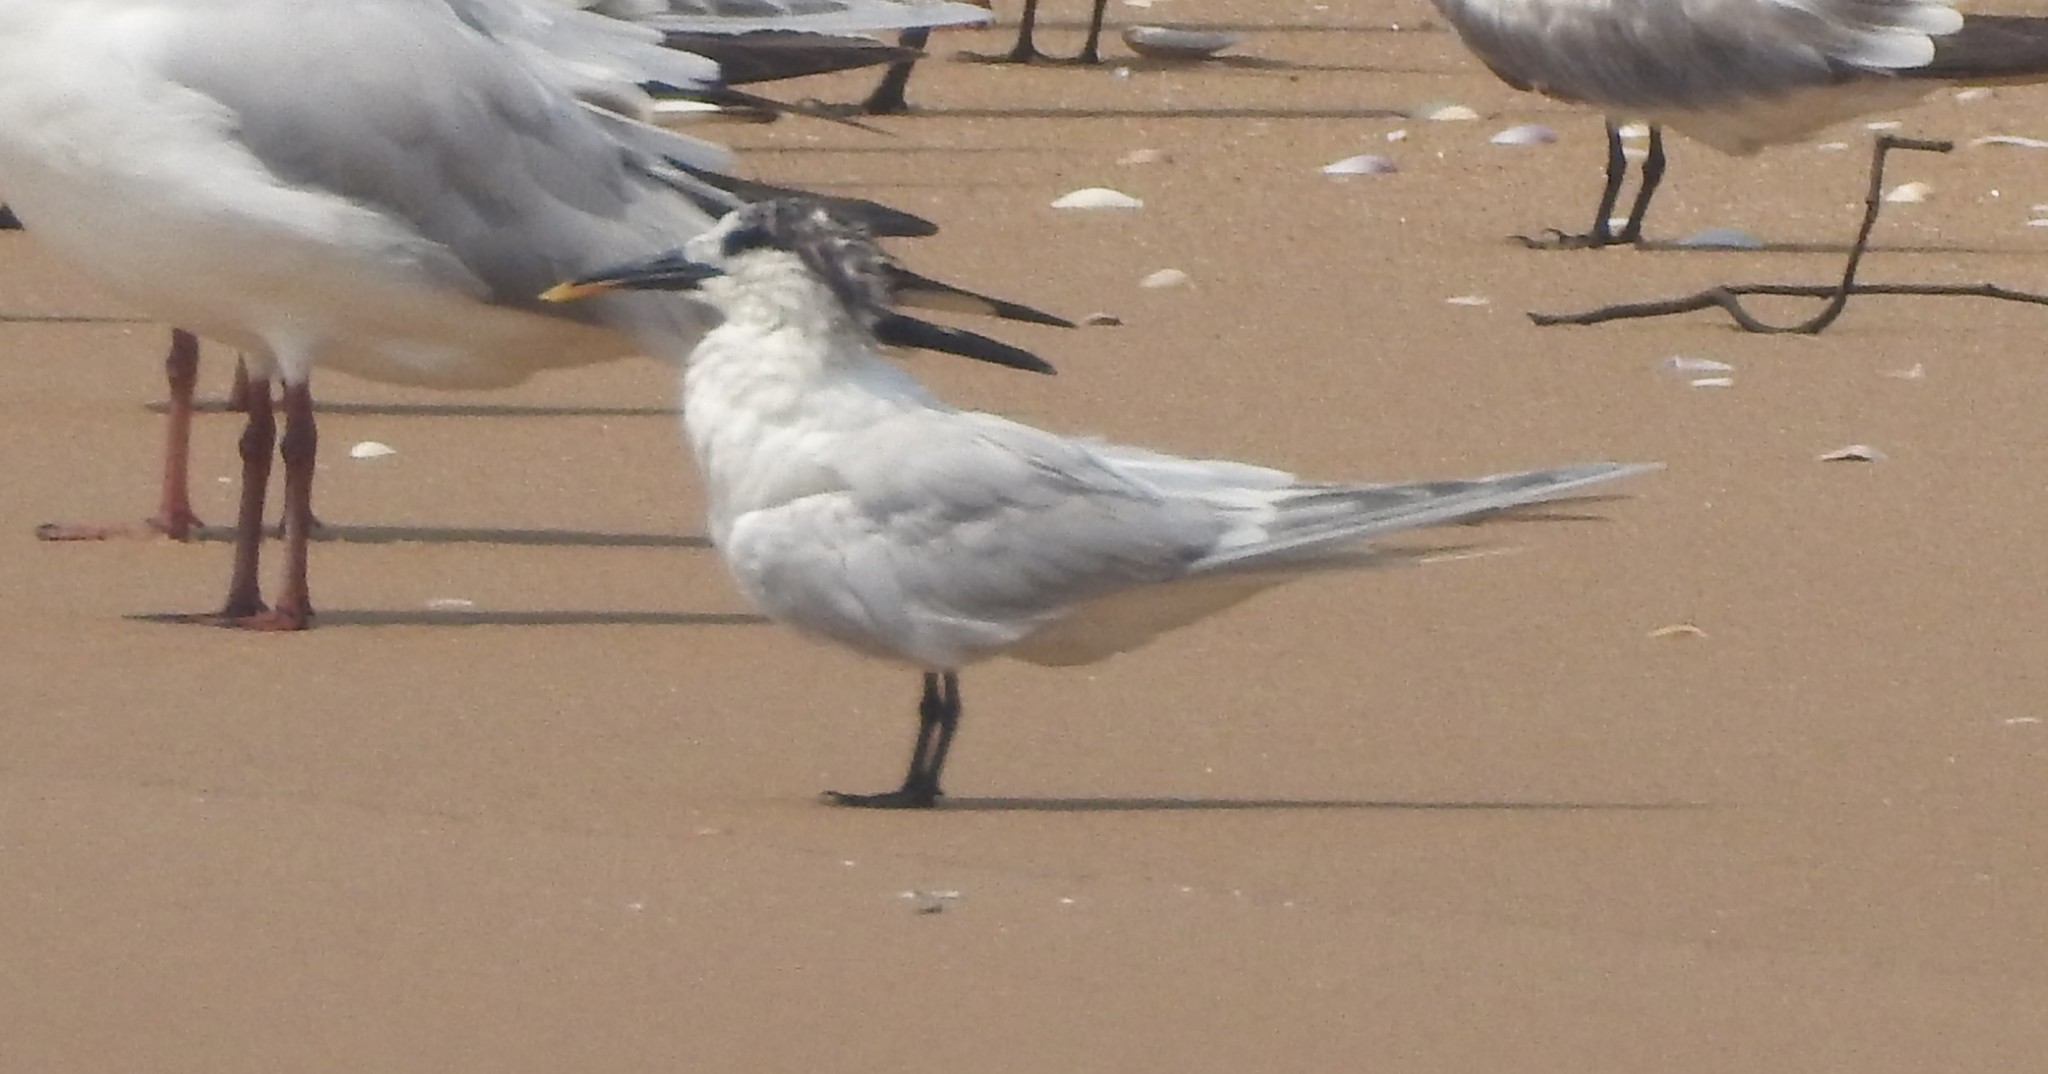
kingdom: Animalia
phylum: Chordata
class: Aves
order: Charadriiformes
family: Laridae
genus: Thalasseus
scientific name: Thalasseus sandvicensis
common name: Sandwich tern
